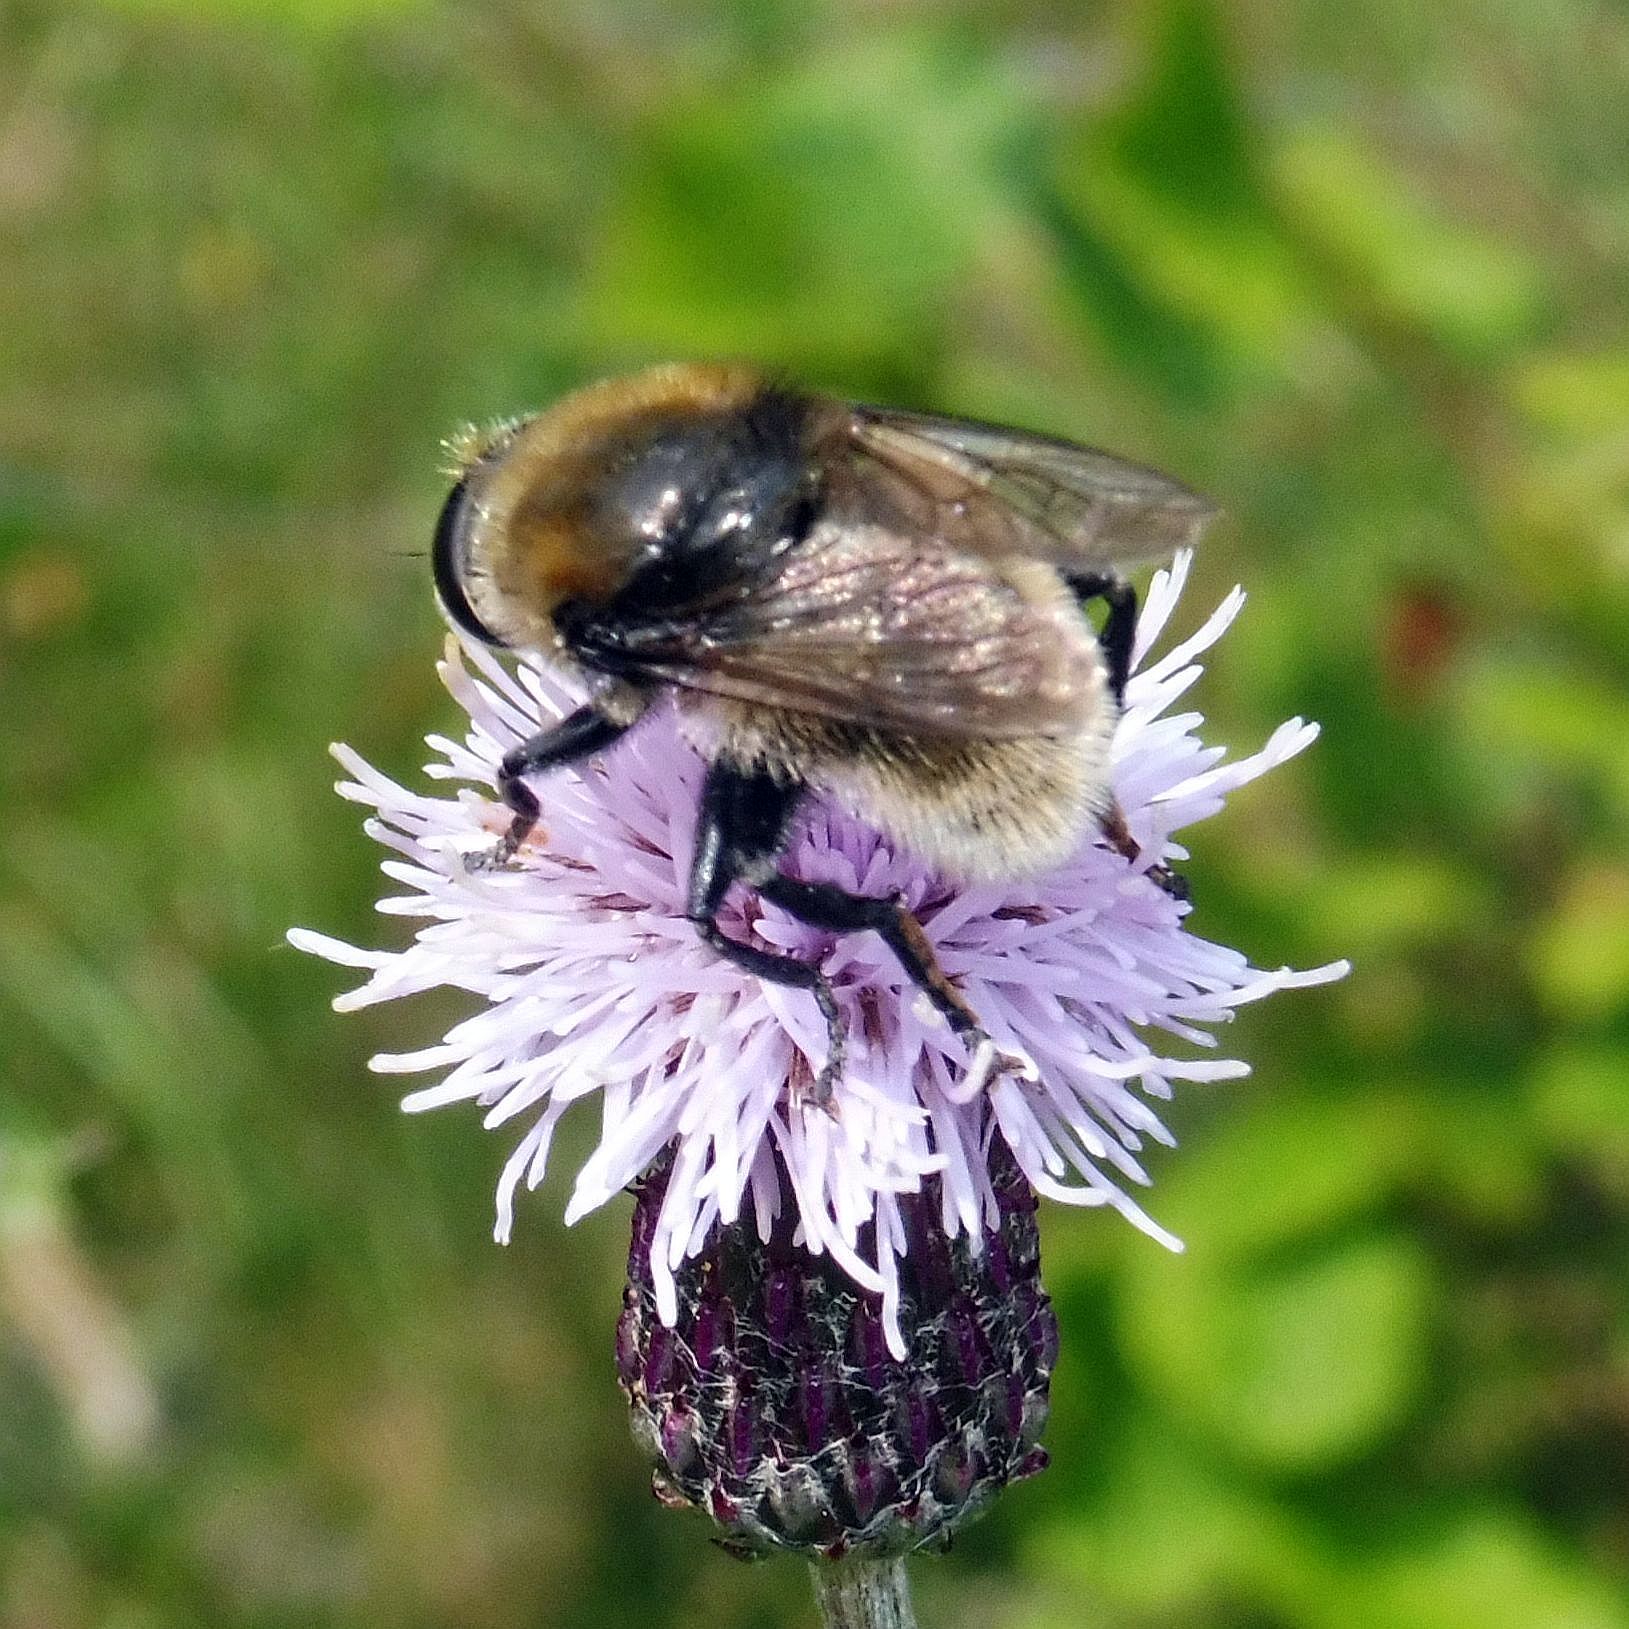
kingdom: Animalia
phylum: Arthropoda
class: Insecta
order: Diptera
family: Syrphidae
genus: Merodon
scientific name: Merodon equestris
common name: Greater bulb-fly
